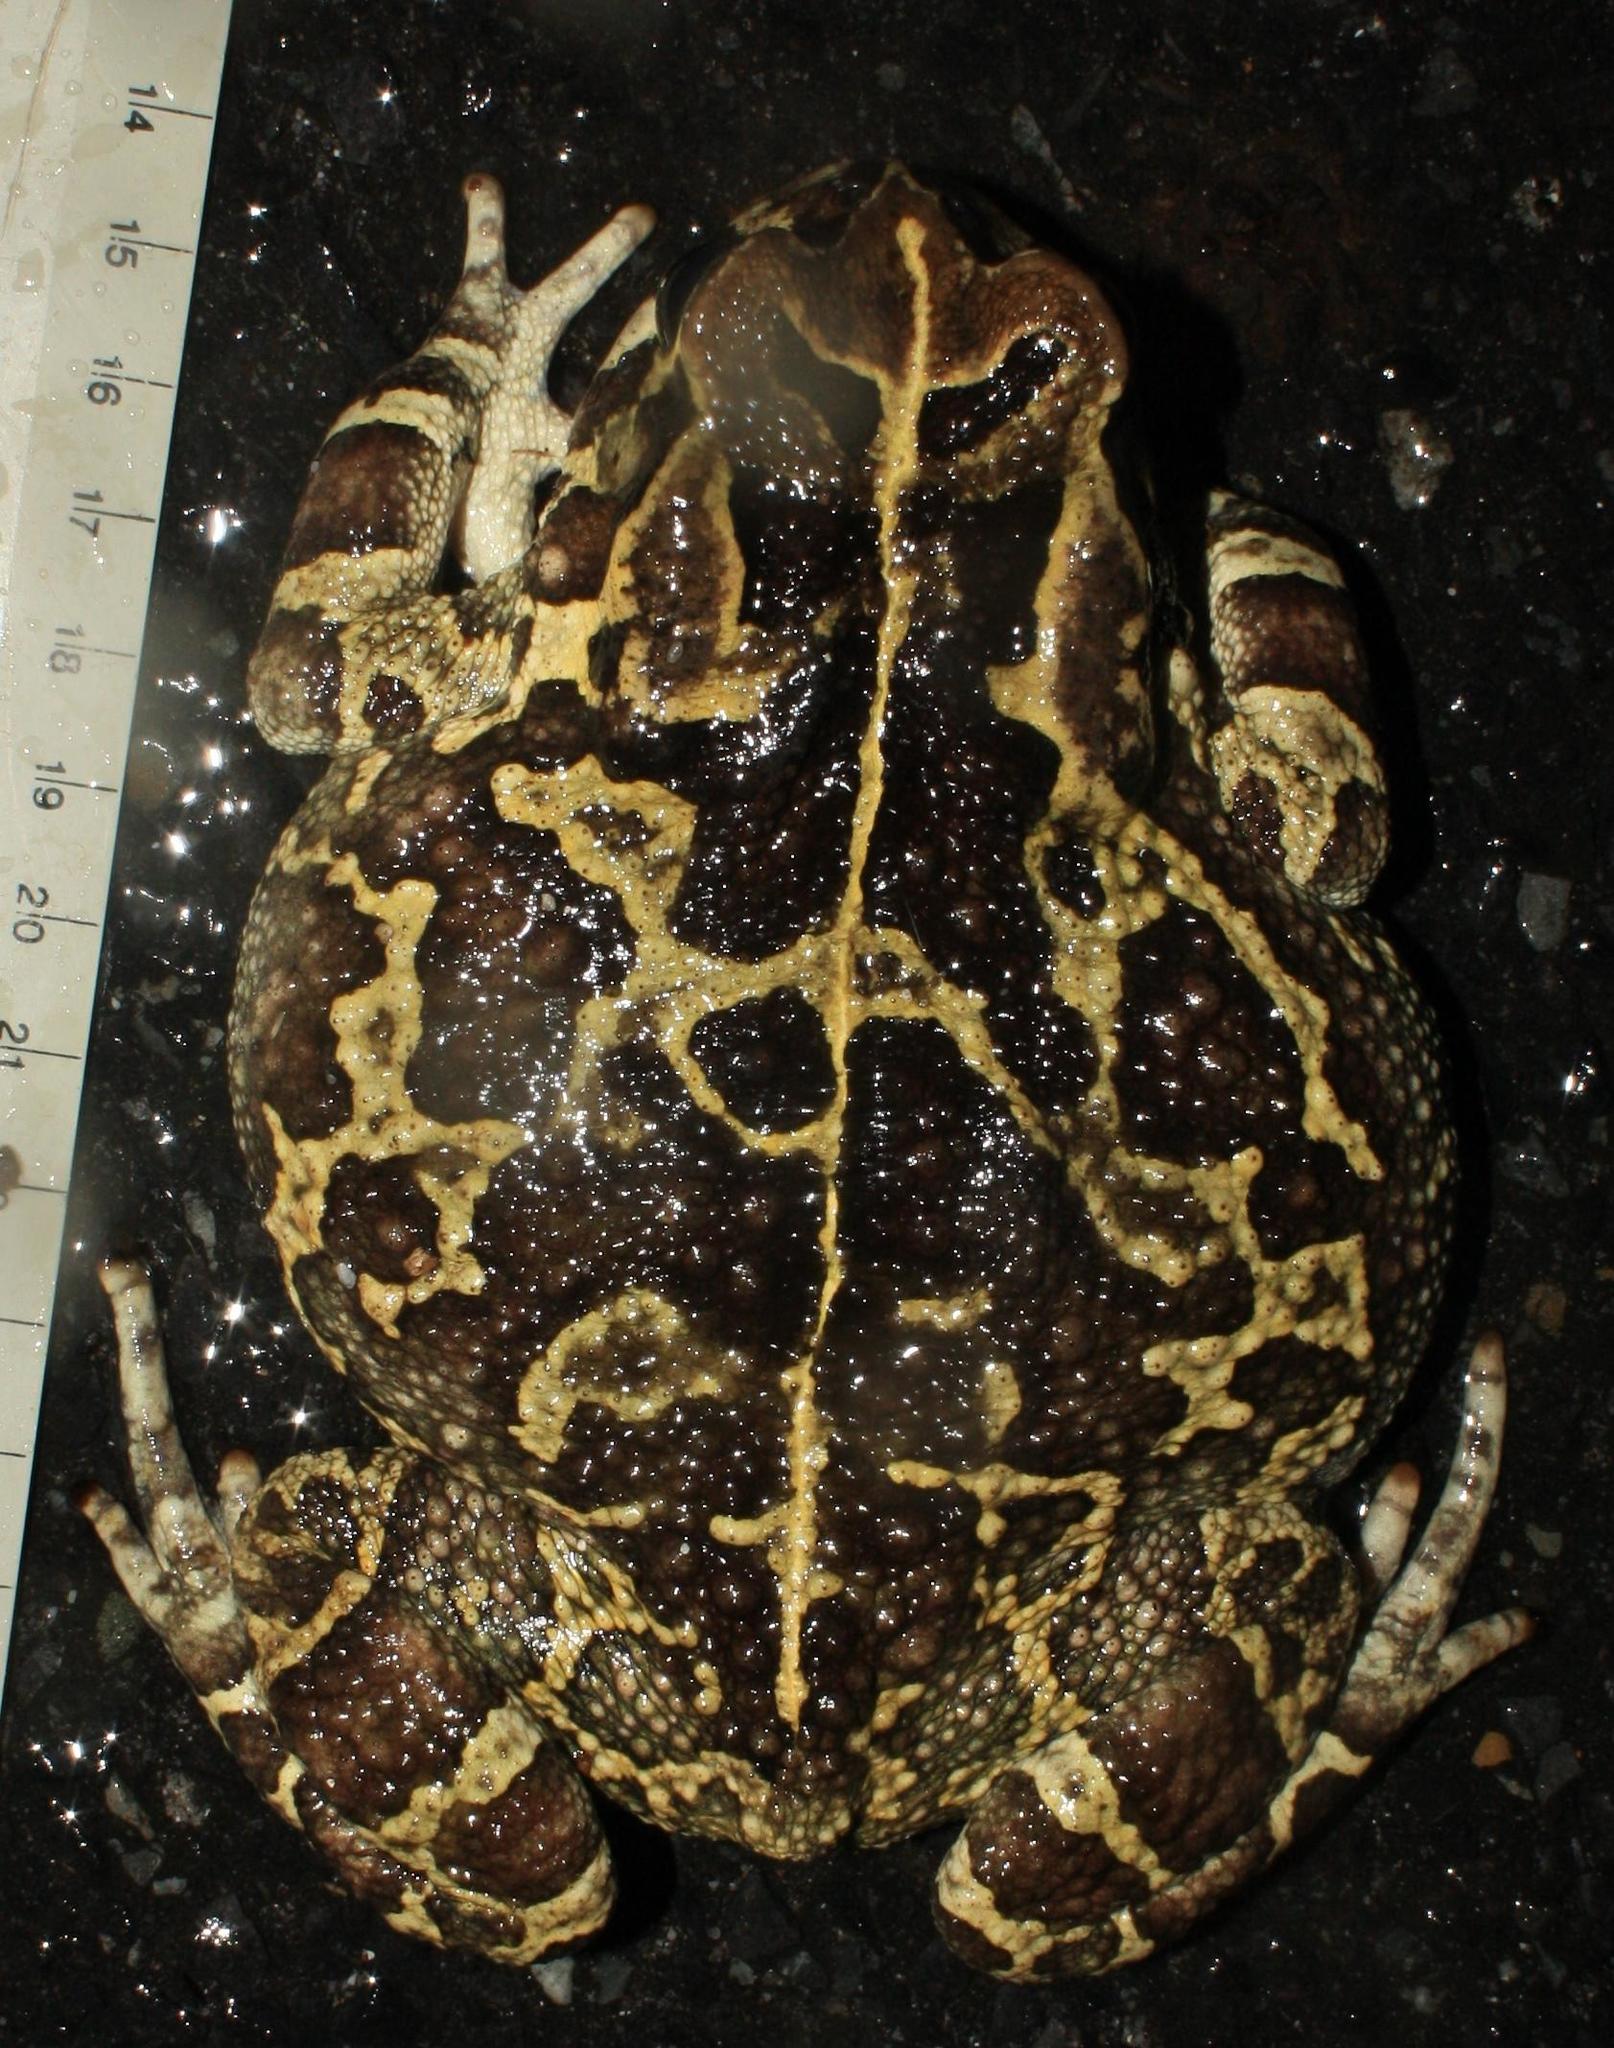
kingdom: Animalia
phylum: Chordata
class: Amphibia
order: Anura
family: Bufonidae
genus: Sclerophrys
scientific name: Sclerophrys pantherina
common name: Panther toad
